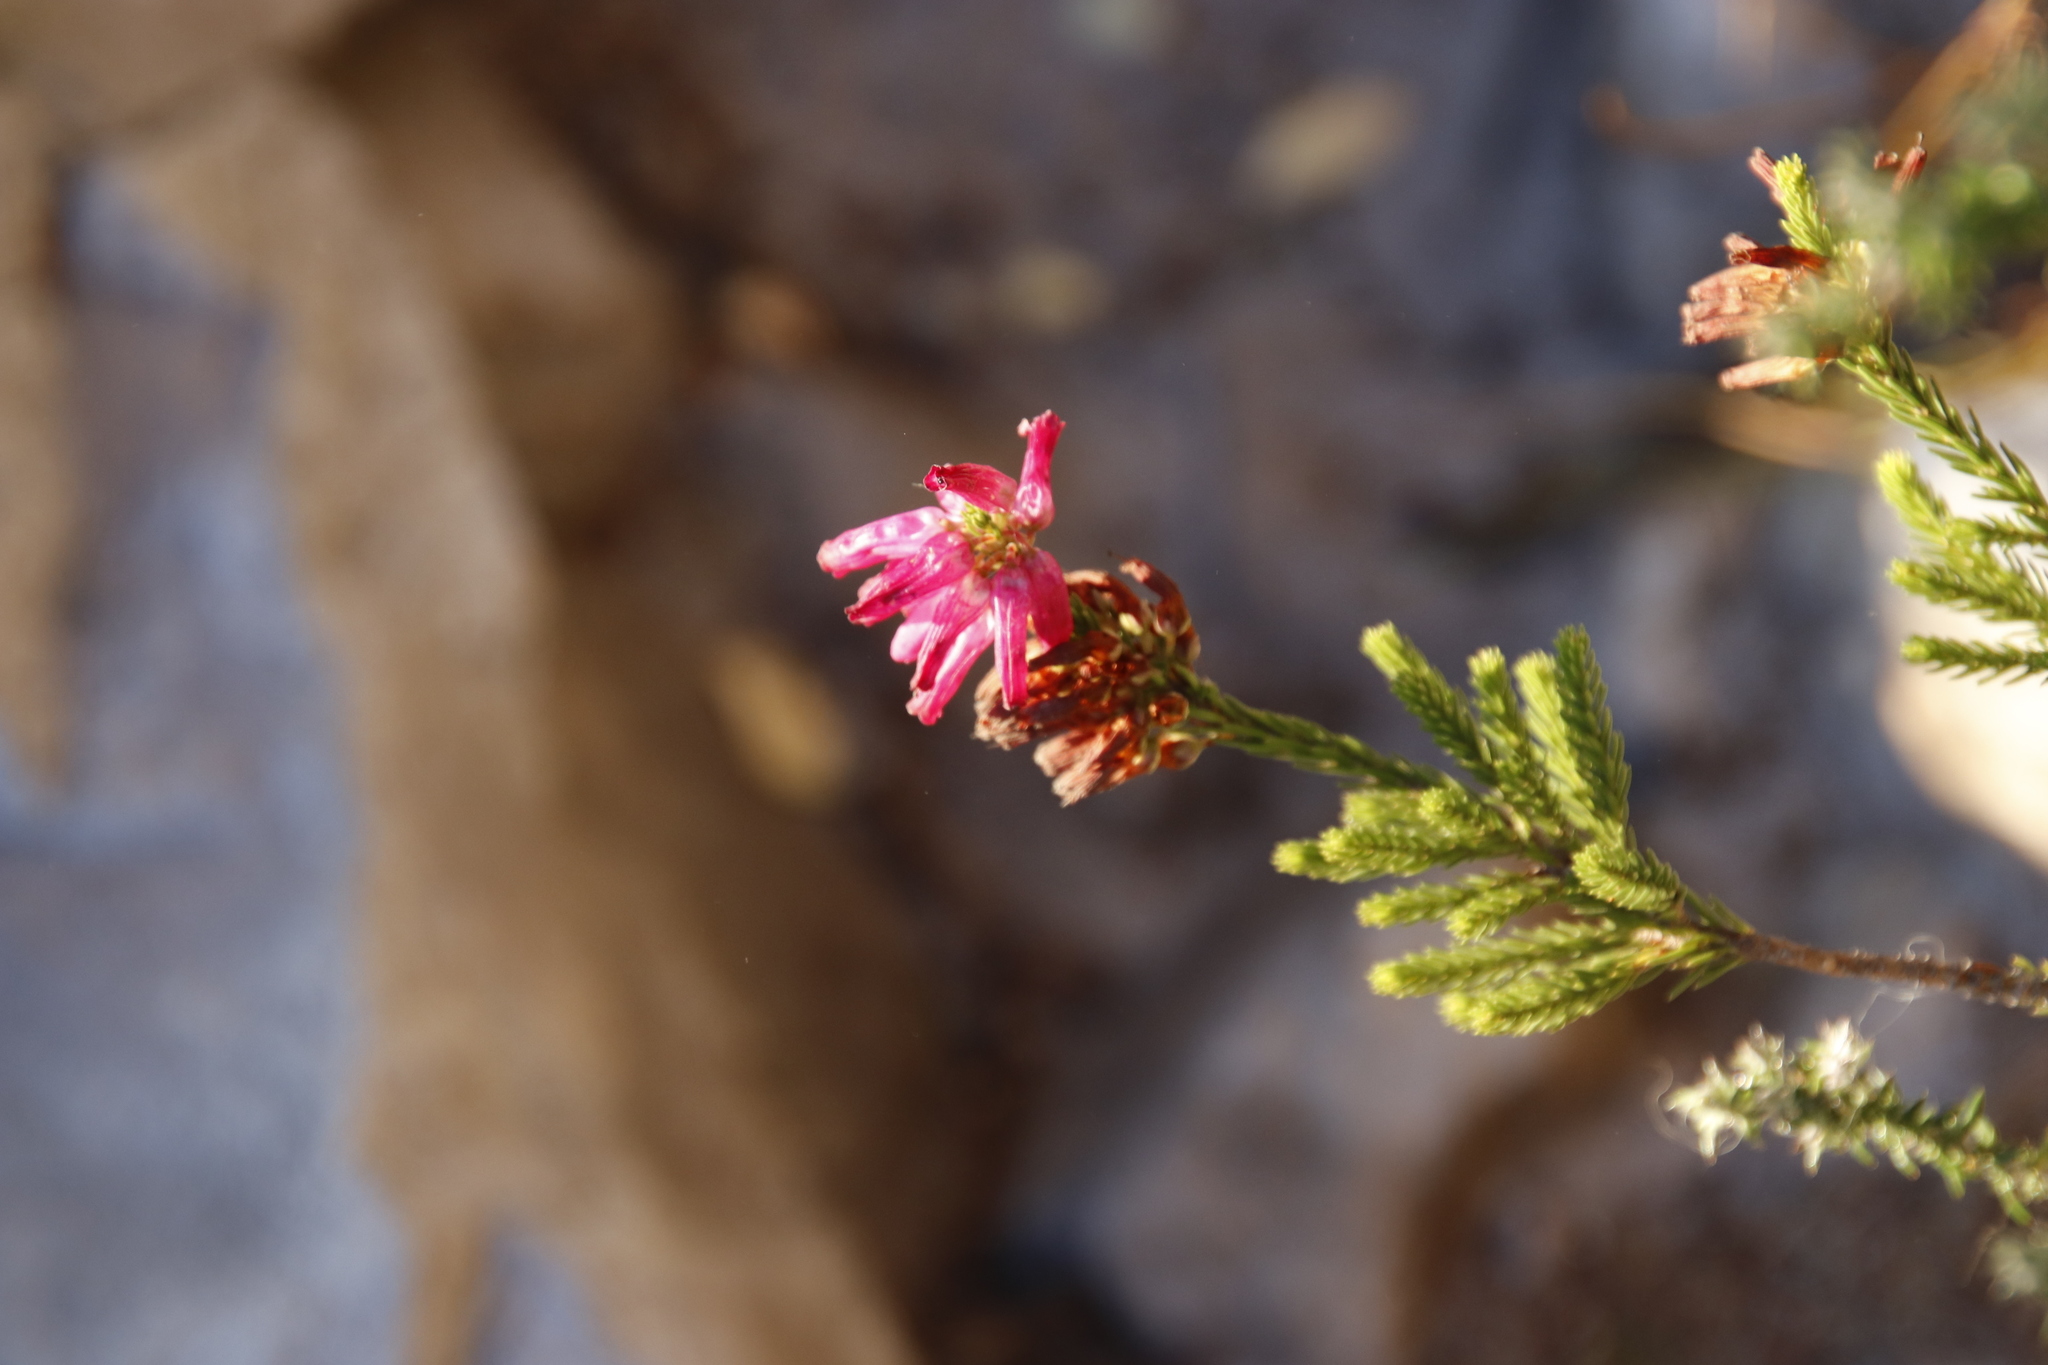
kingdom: Plantae
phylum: Tracheophyta
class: Magnoliopsida
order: Ericales
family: Ericaceae
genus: Erica
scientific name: Erica mammosa
